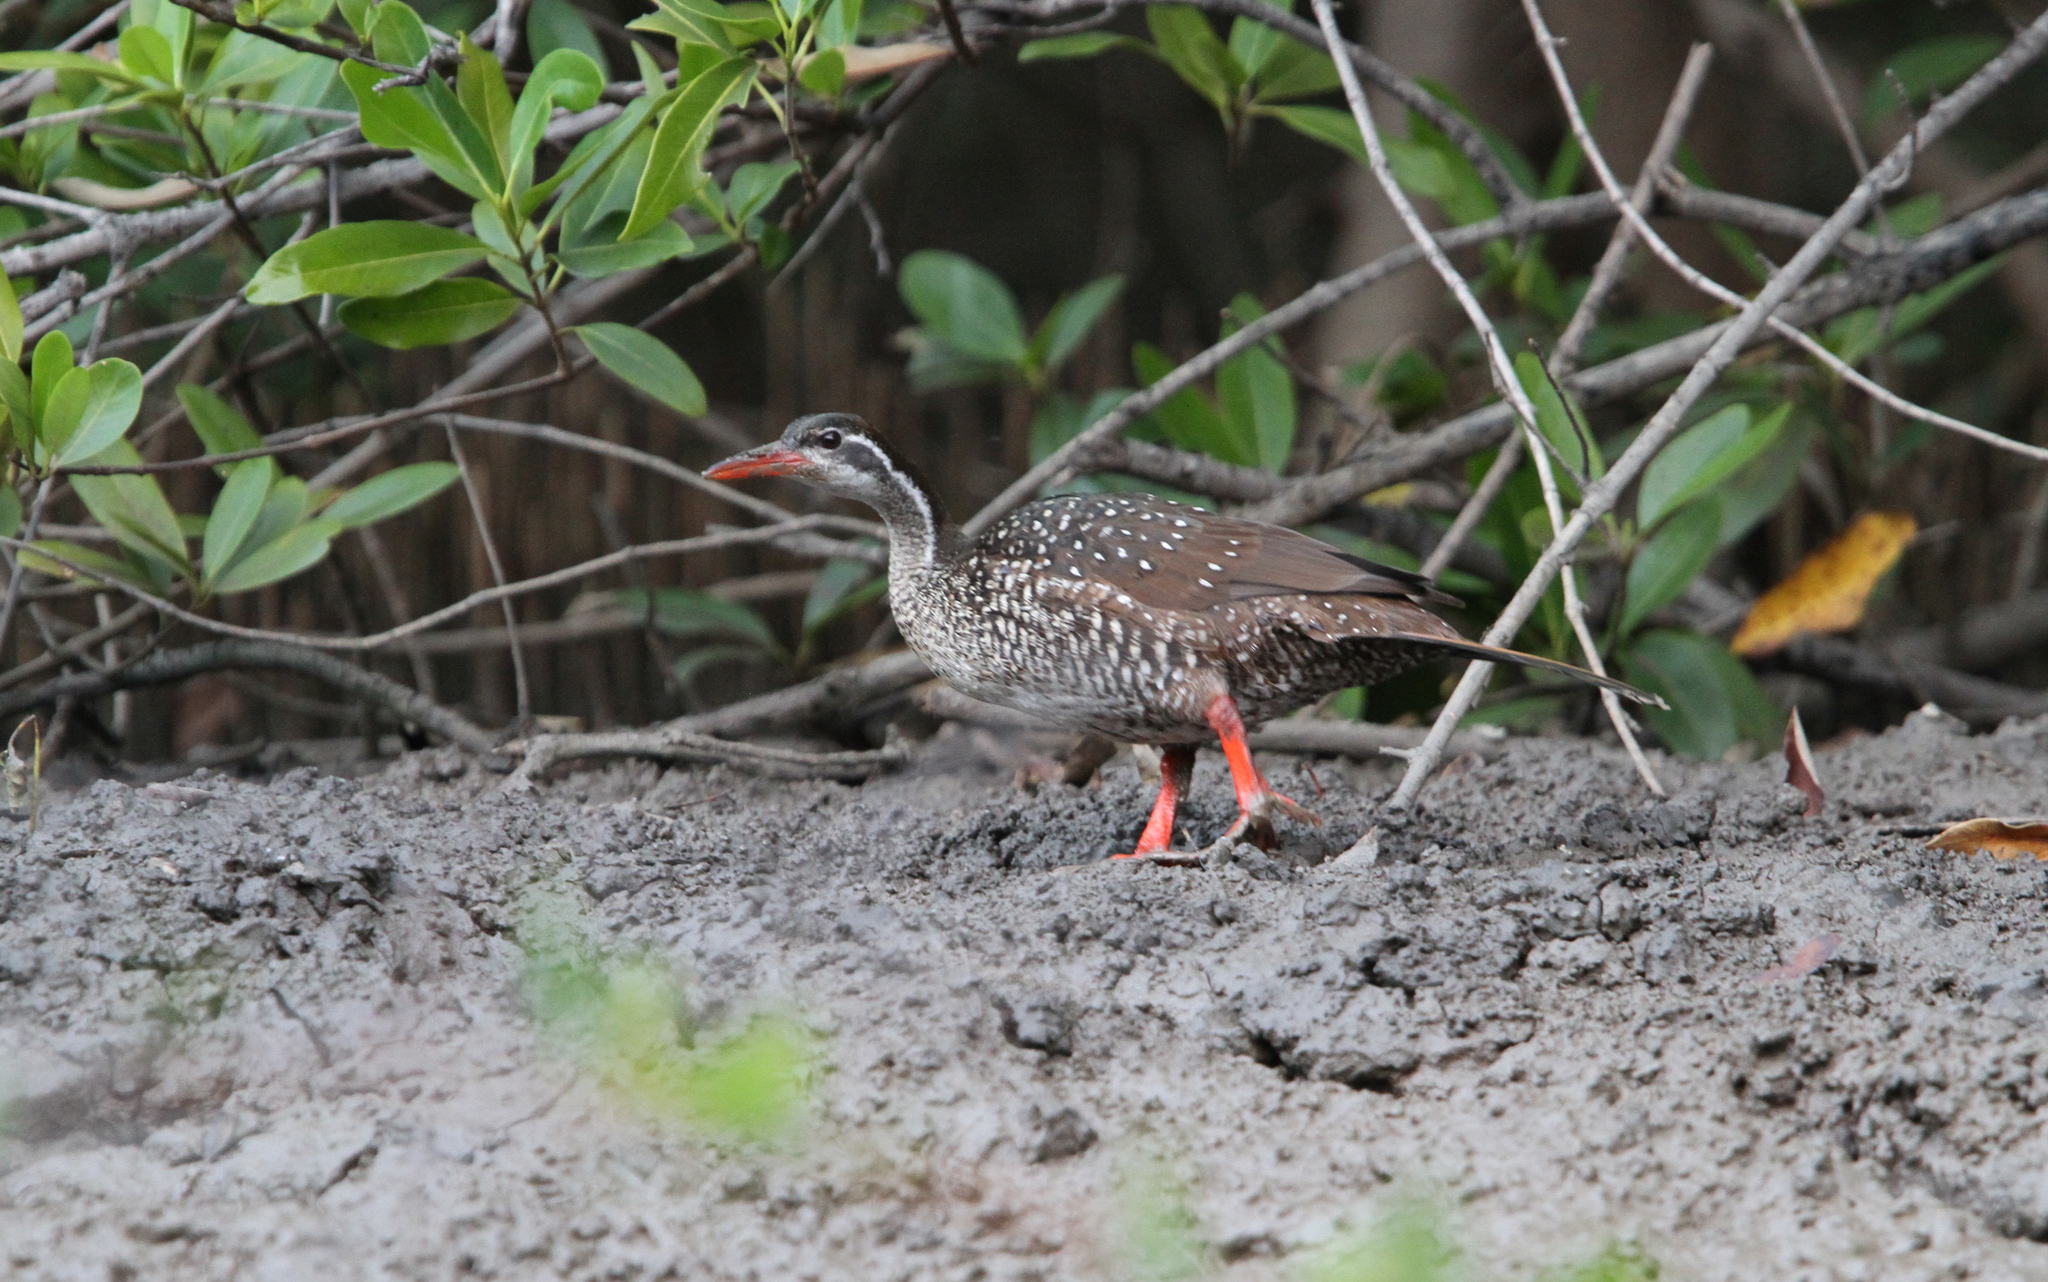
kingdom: Animalia
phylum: Chordata
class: Aves
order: Gruiformes
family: Heliornithidae
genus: Podica
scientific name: Podica senegalensis
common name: African finfoot
